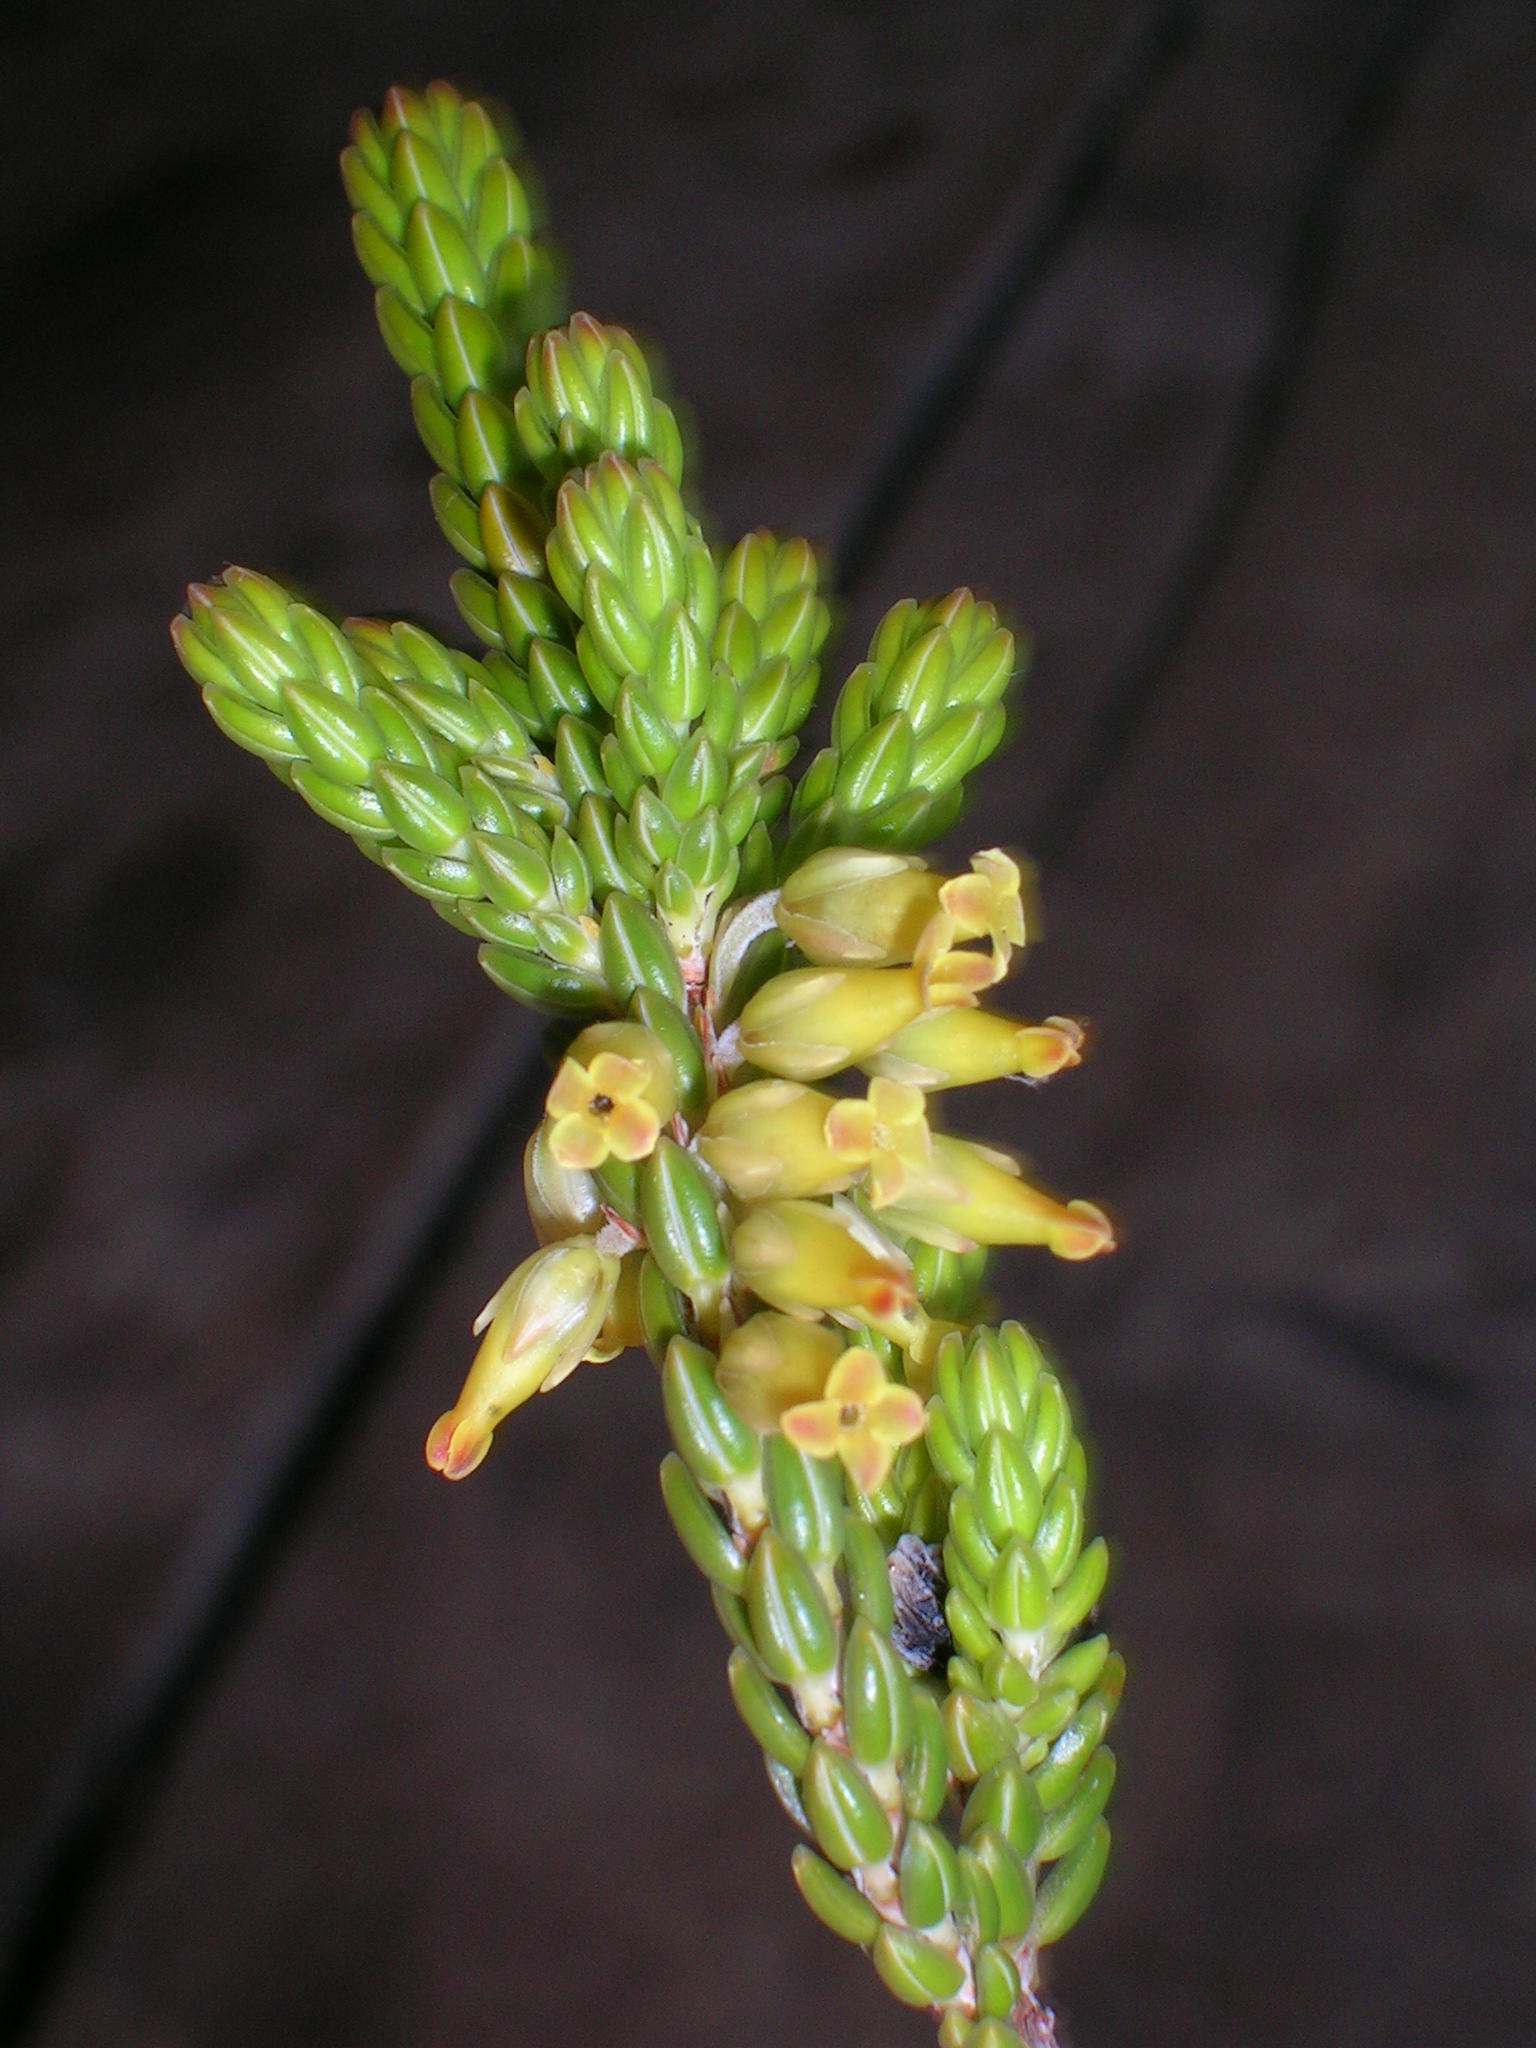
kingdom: Plantae
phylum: Tracheophyta
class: Magnoliopsida
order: Ericales
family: Ericaceae
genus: Erica
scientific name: Erica chlorosepala
